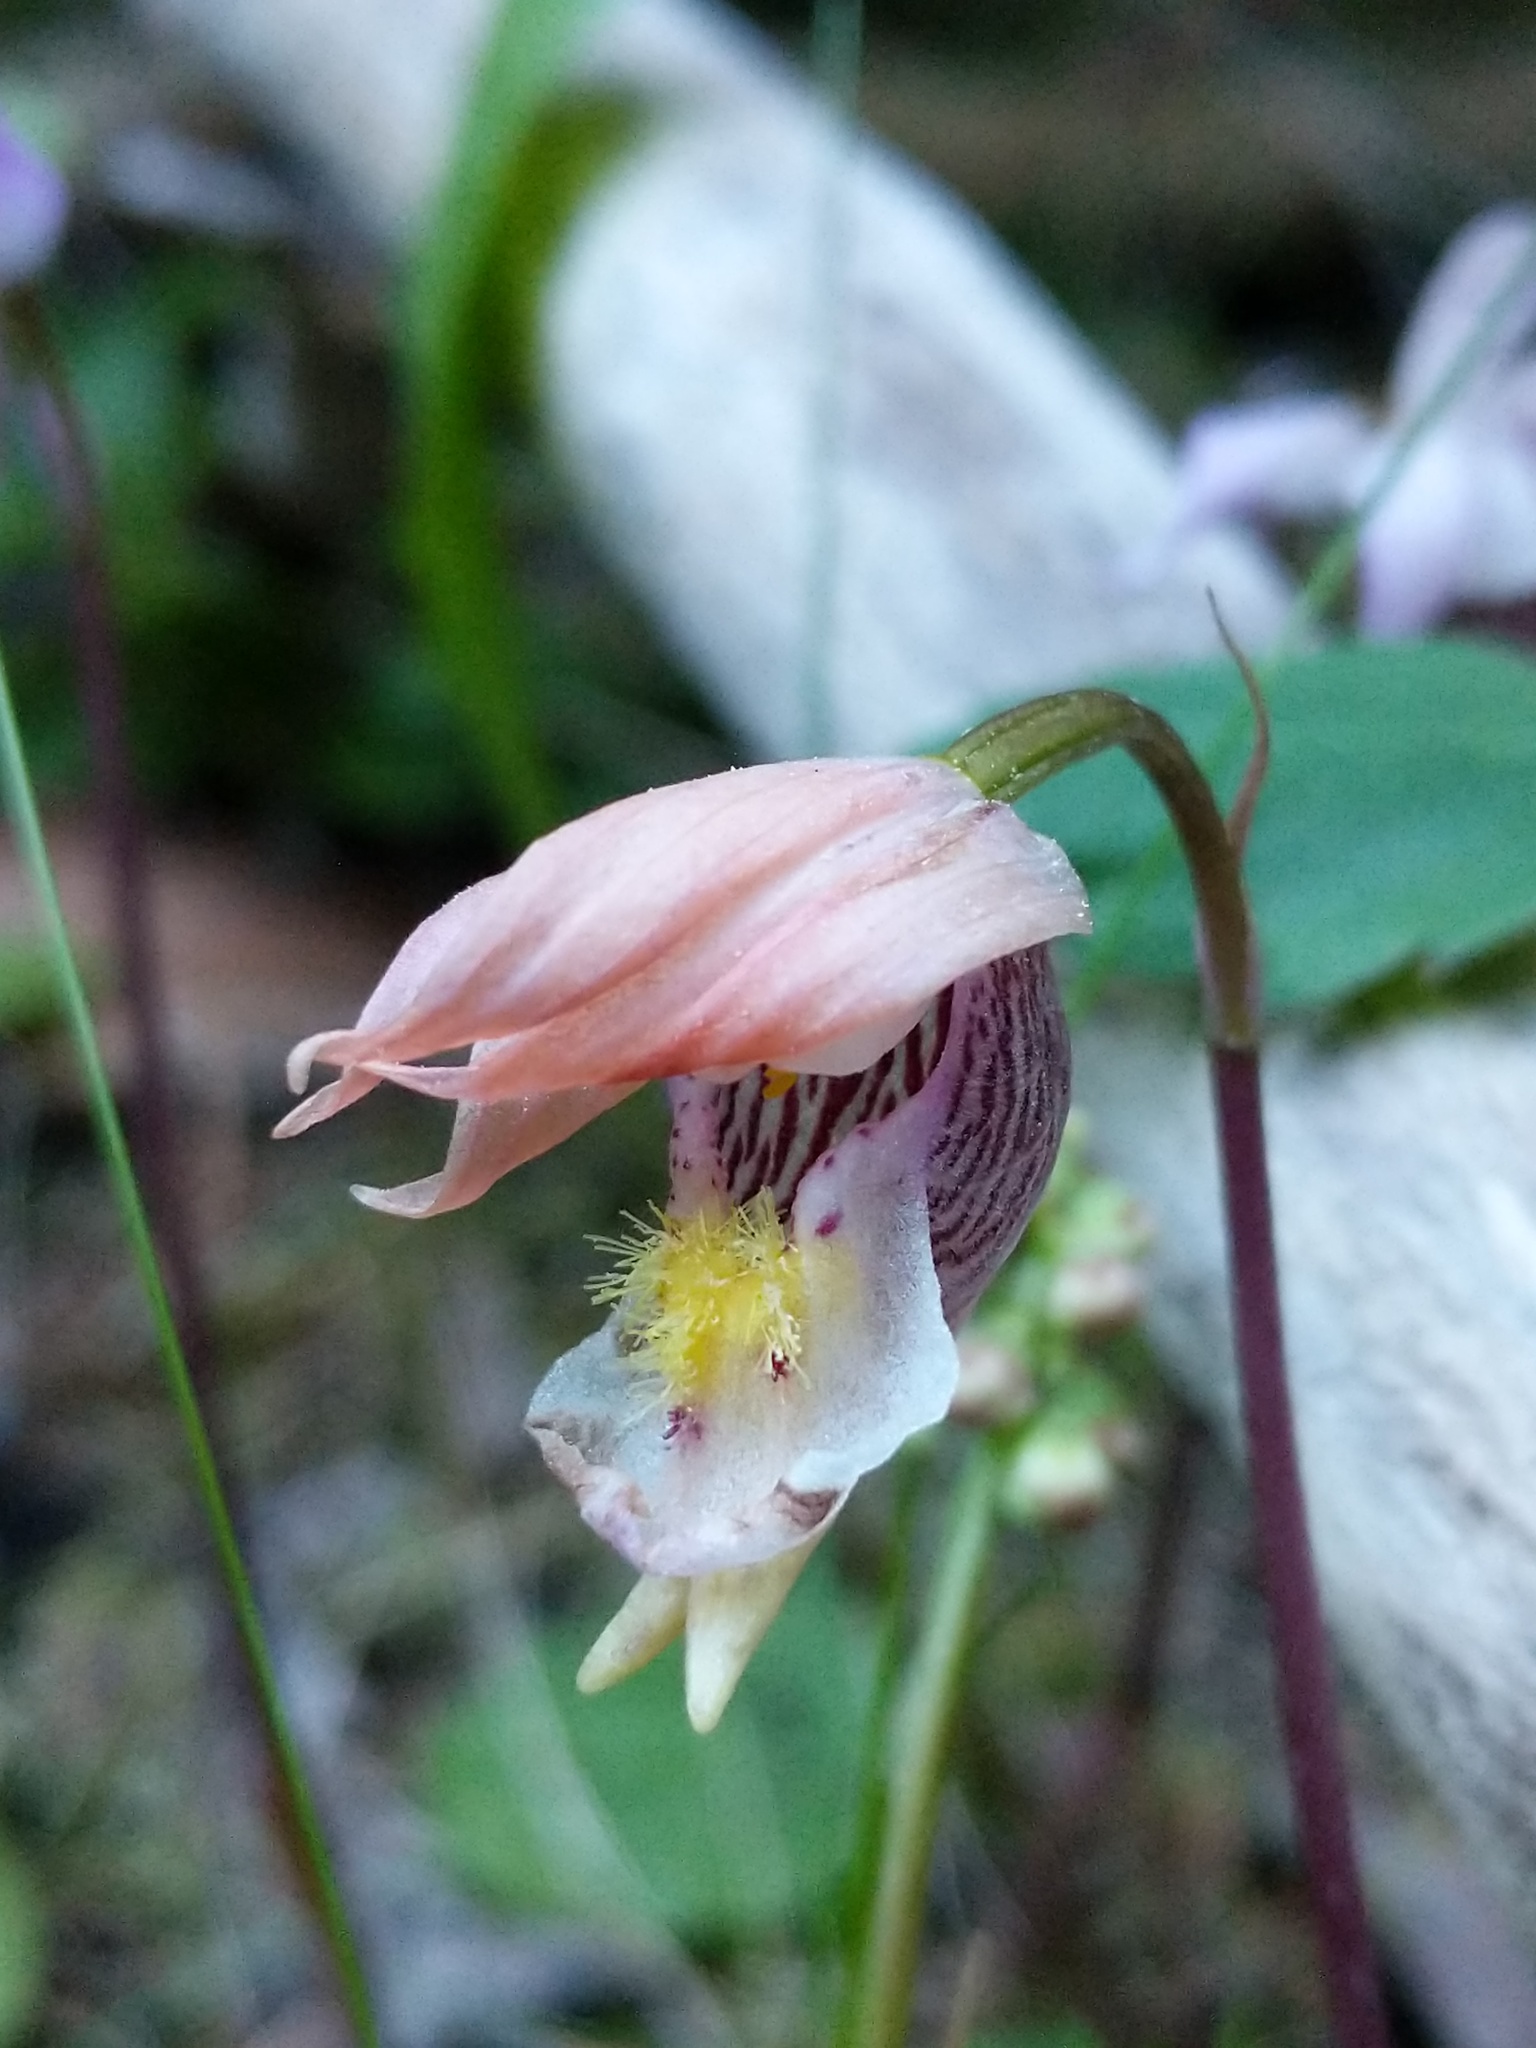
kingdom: Plantae
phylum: Tracheophyta
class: Liliopsida
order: Asparagales
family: Orchidaceae
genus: Calypso
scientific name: Calypso bulbosa
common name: Calypso
